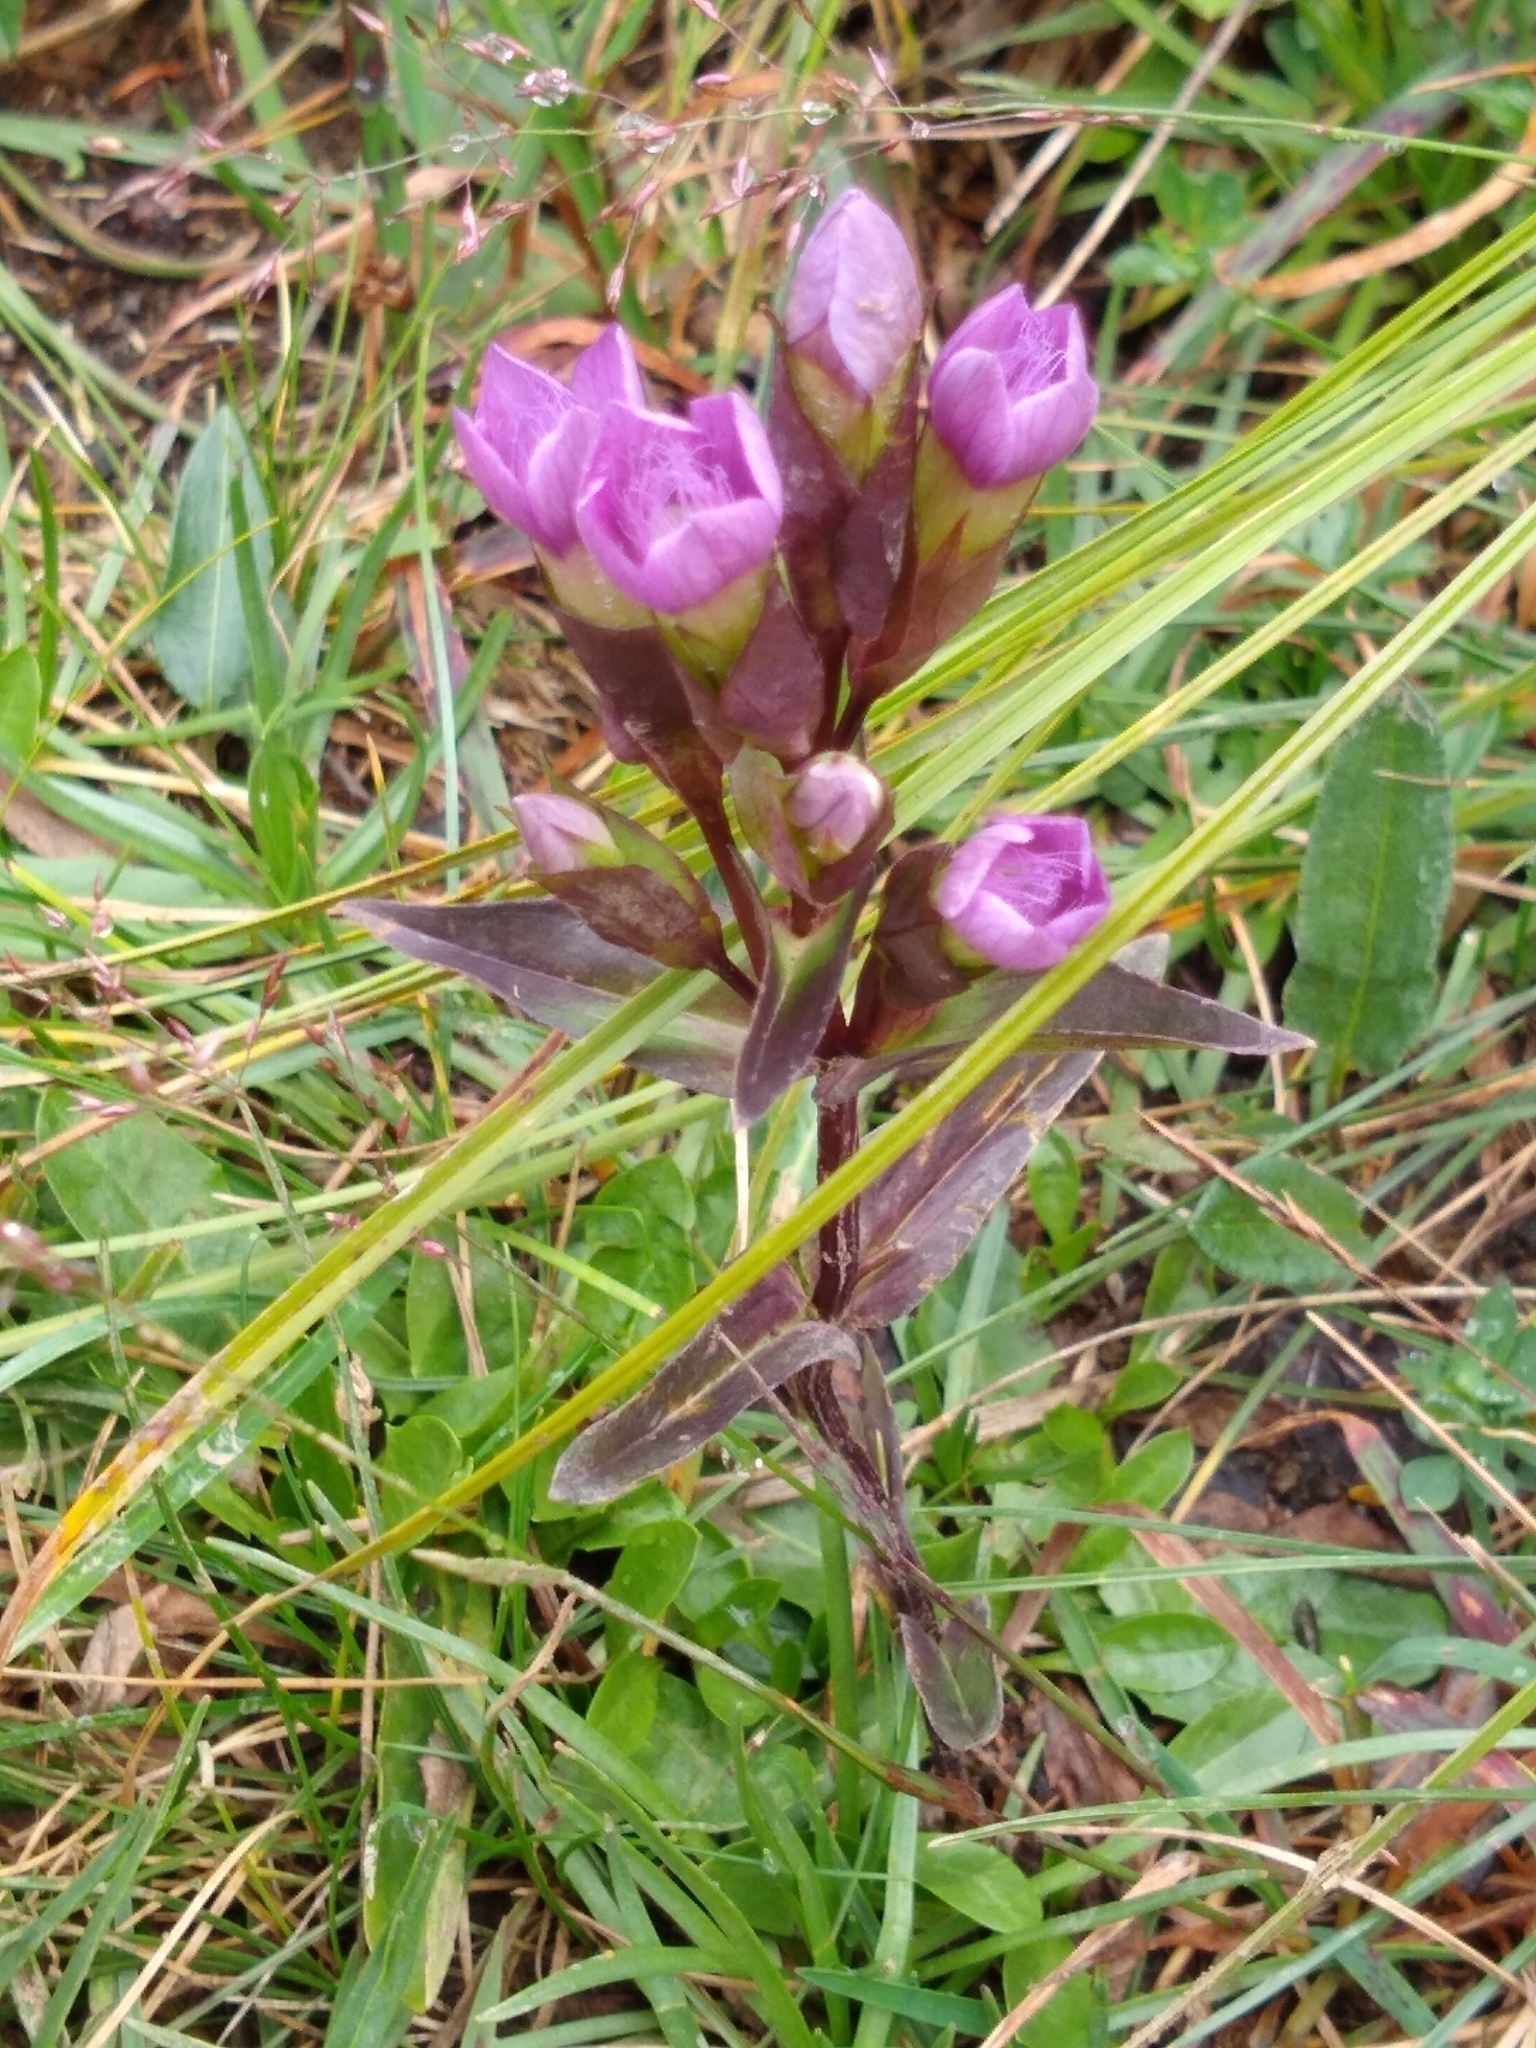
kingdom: Plantae
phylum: Tracheophyta
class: Magnoliopsida
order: Gentianales
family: Gentianaceae
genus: Gentianella
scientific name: Gentianella campestris
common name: Field gentian
